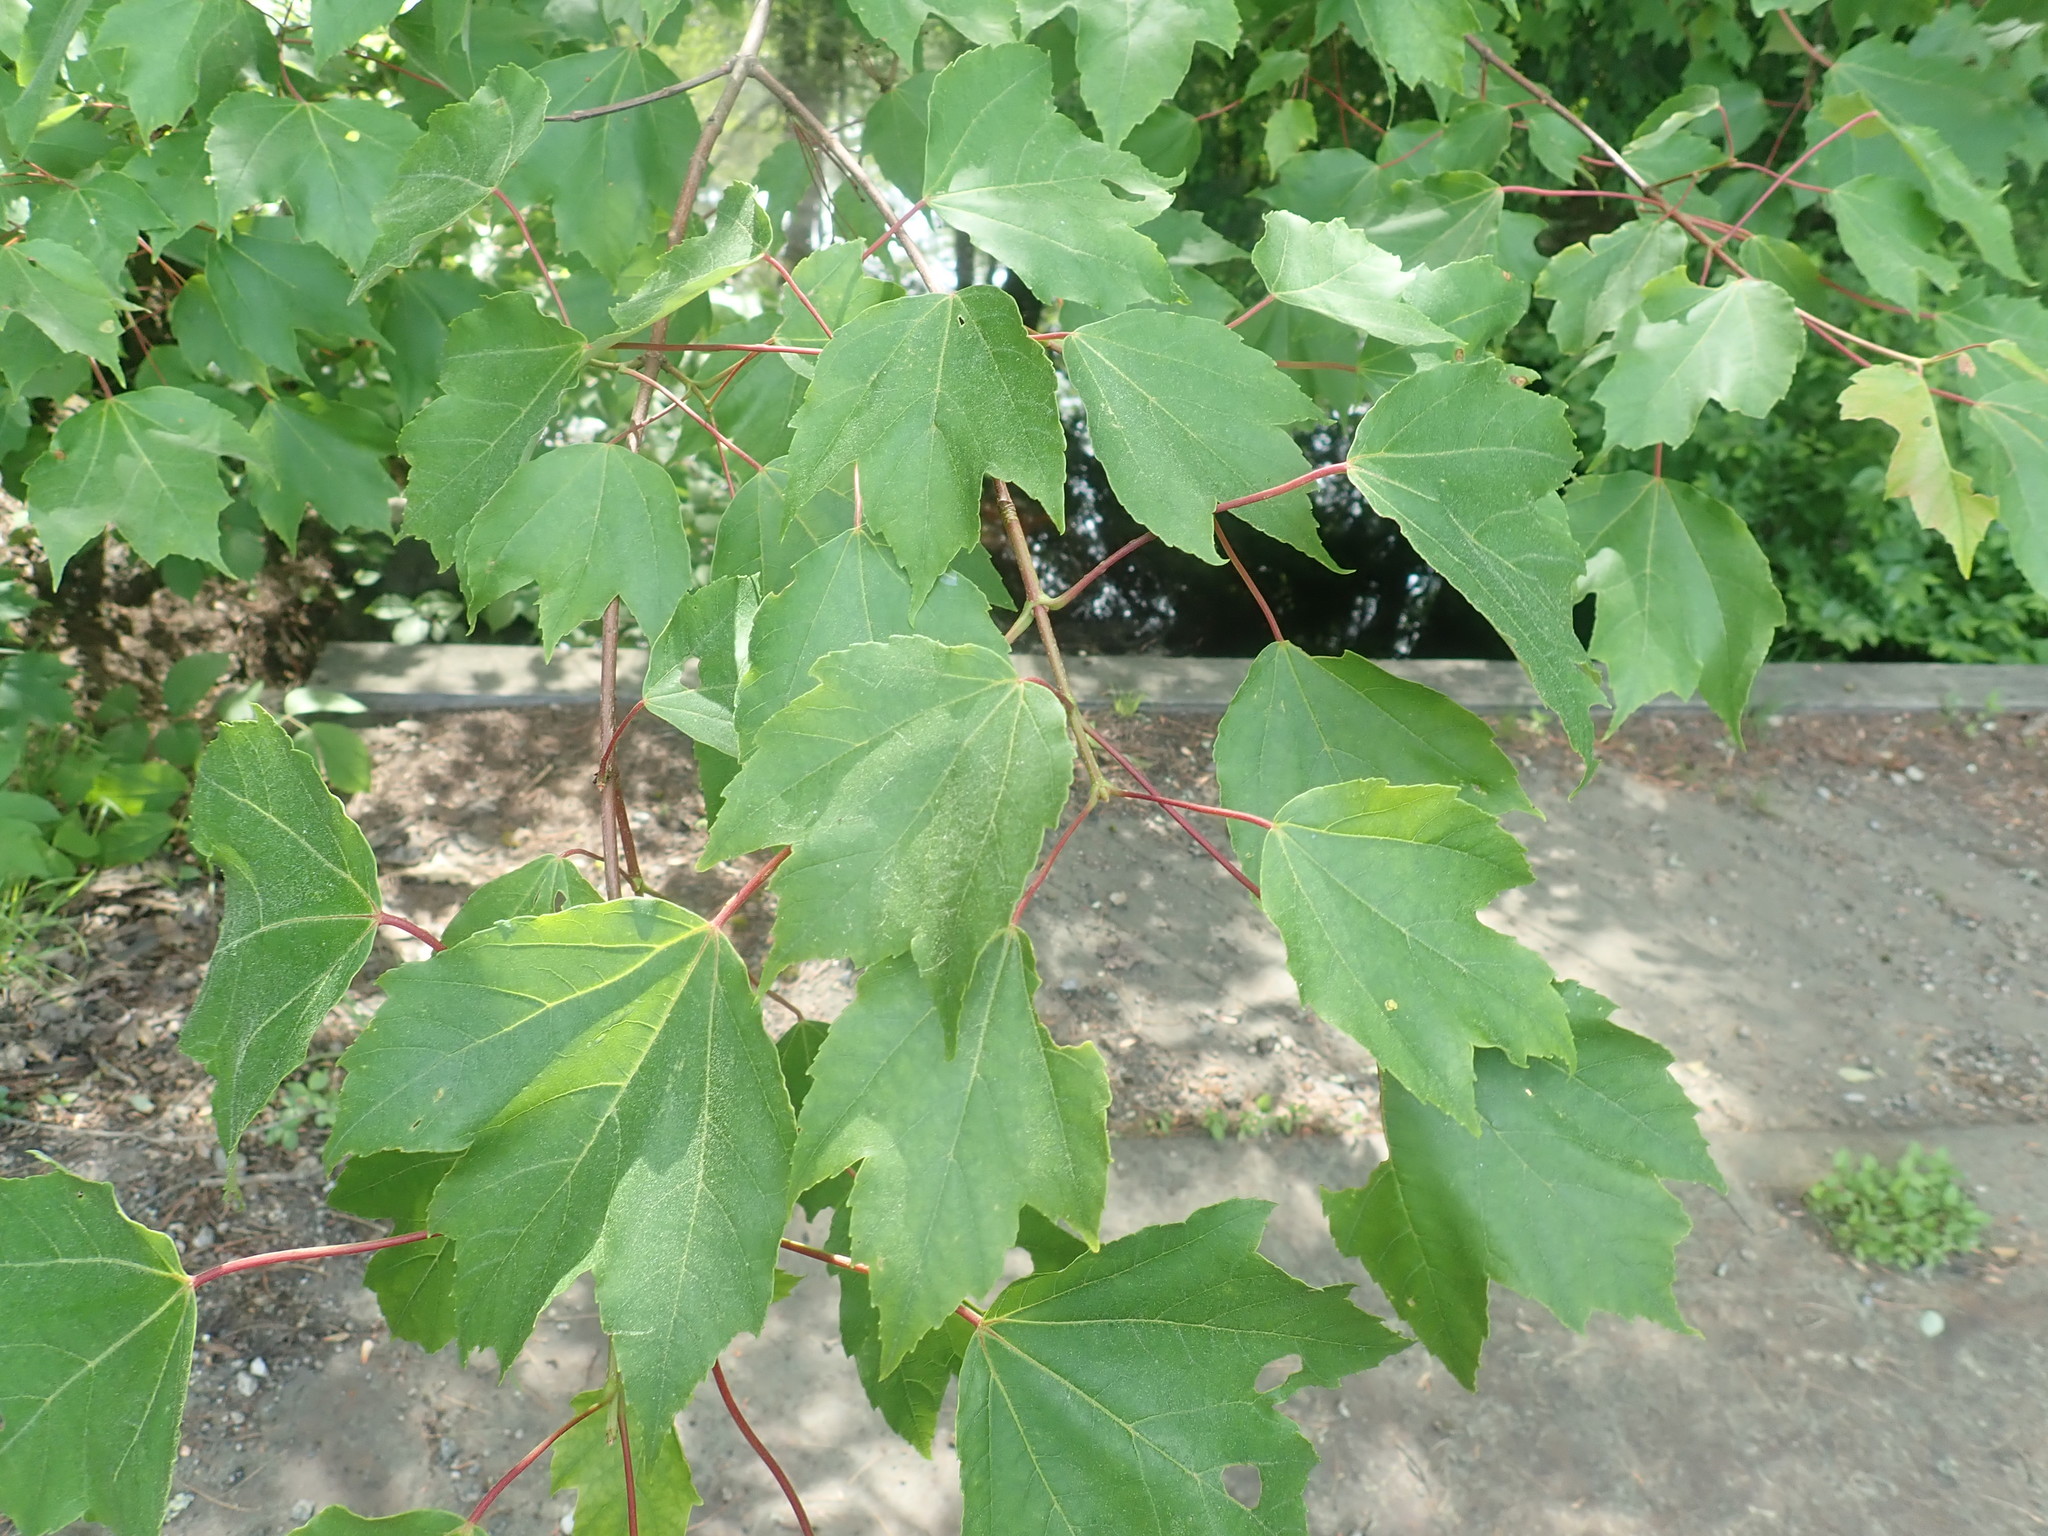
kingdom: Plantae
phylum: Tracheophyta
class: Magnoliopsida
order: Sapindales
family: Sapindaceae
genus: Acer
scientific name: Acer rubrum
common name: Red maple
